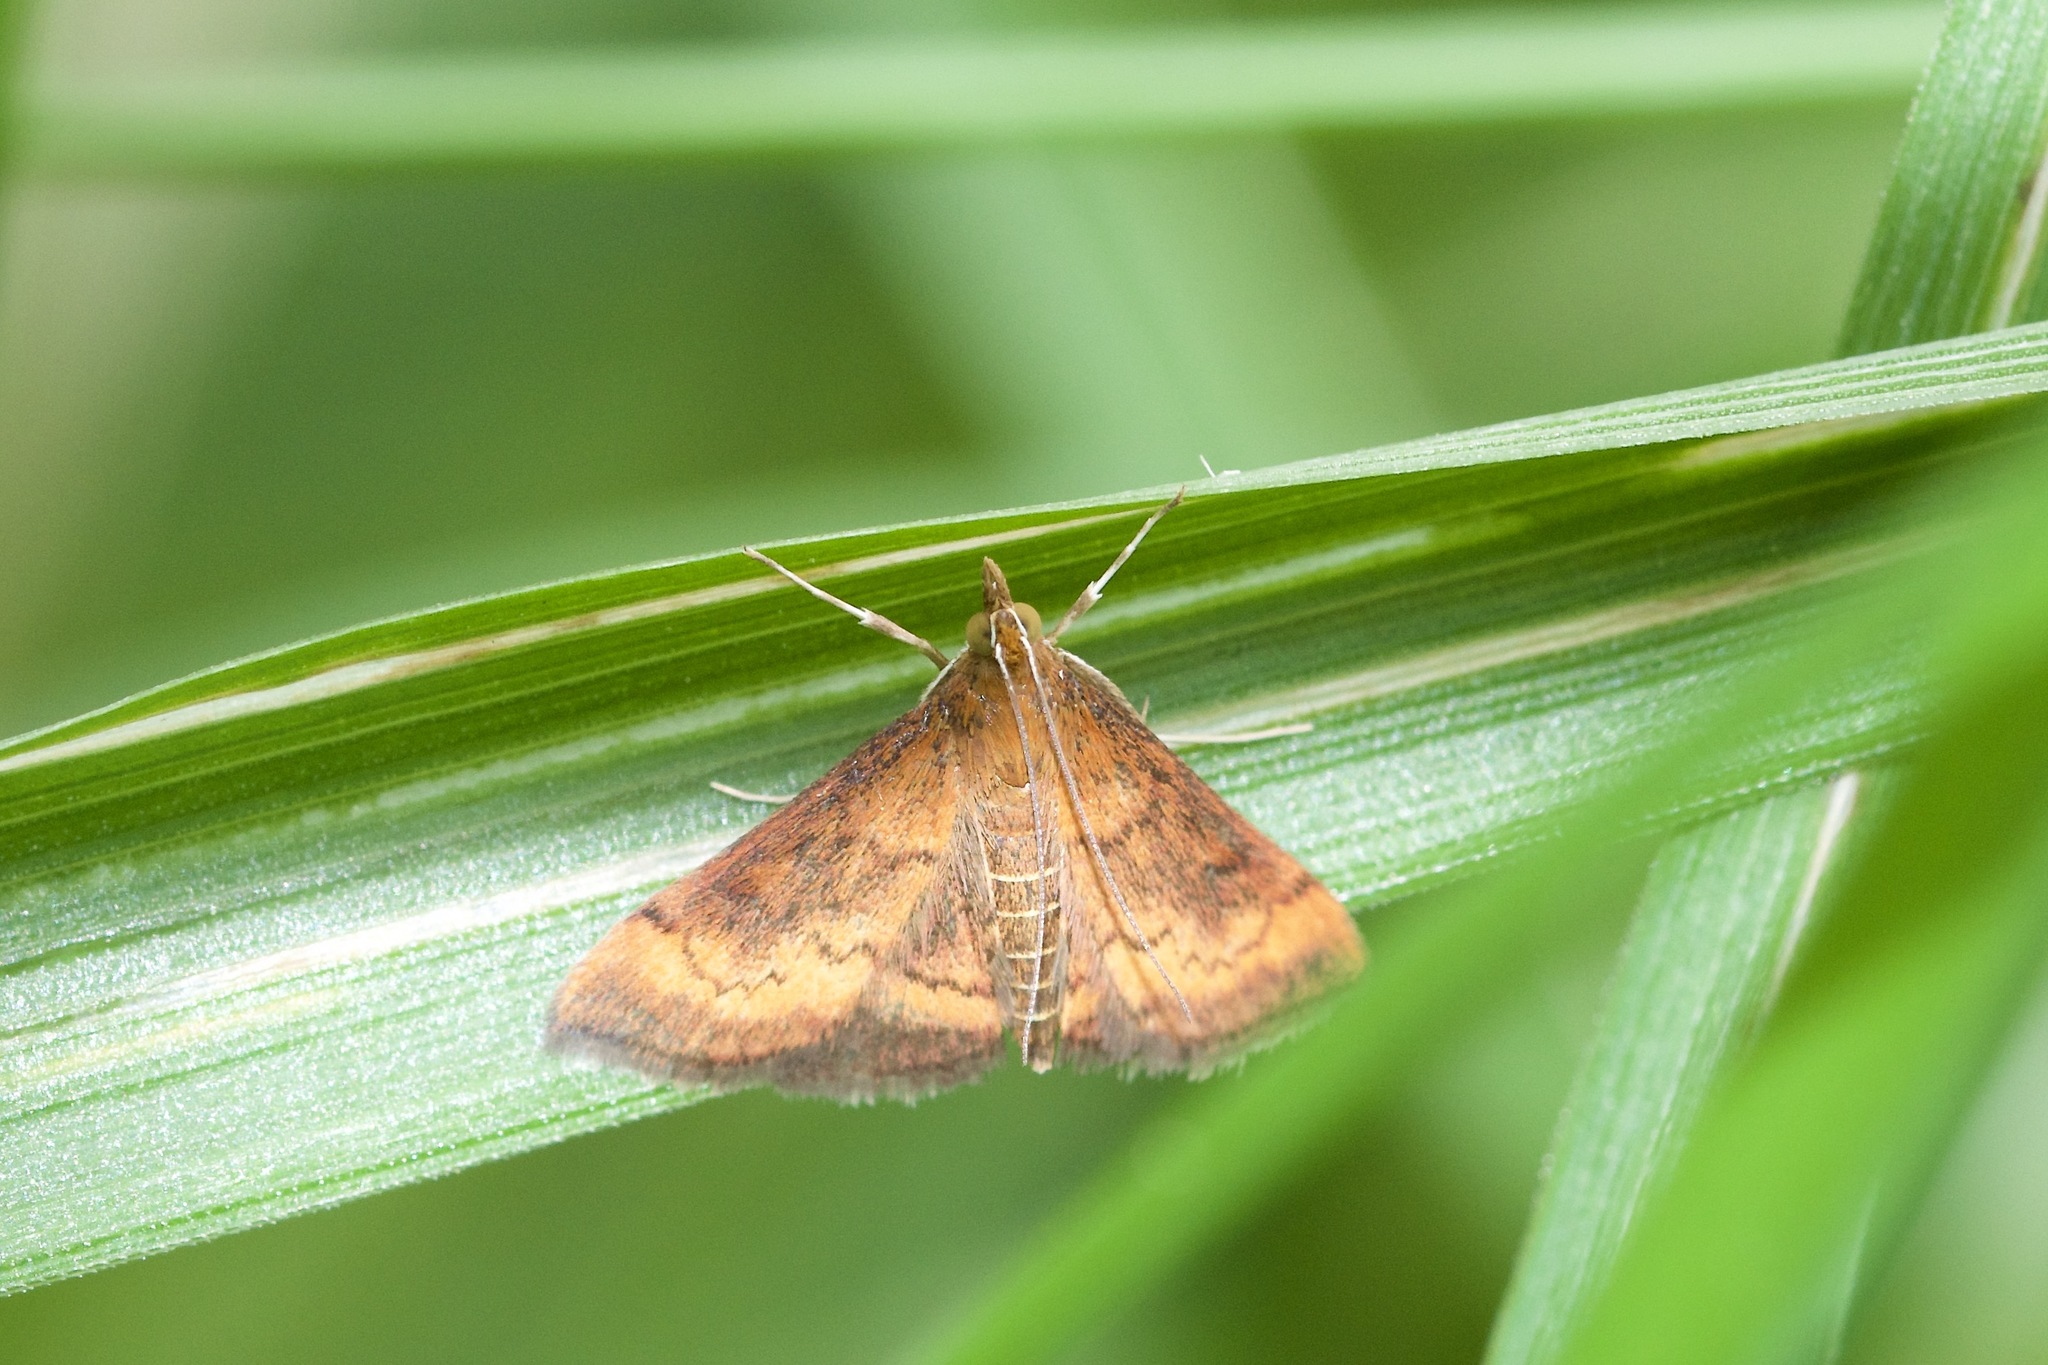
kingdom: Animalia
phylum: Arthropoda
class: Insecta
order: Lepidoptera
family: Crambidae
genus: Pyrausta
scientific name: Pyrausta rubricalis
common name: Variable reddish pyrausta
